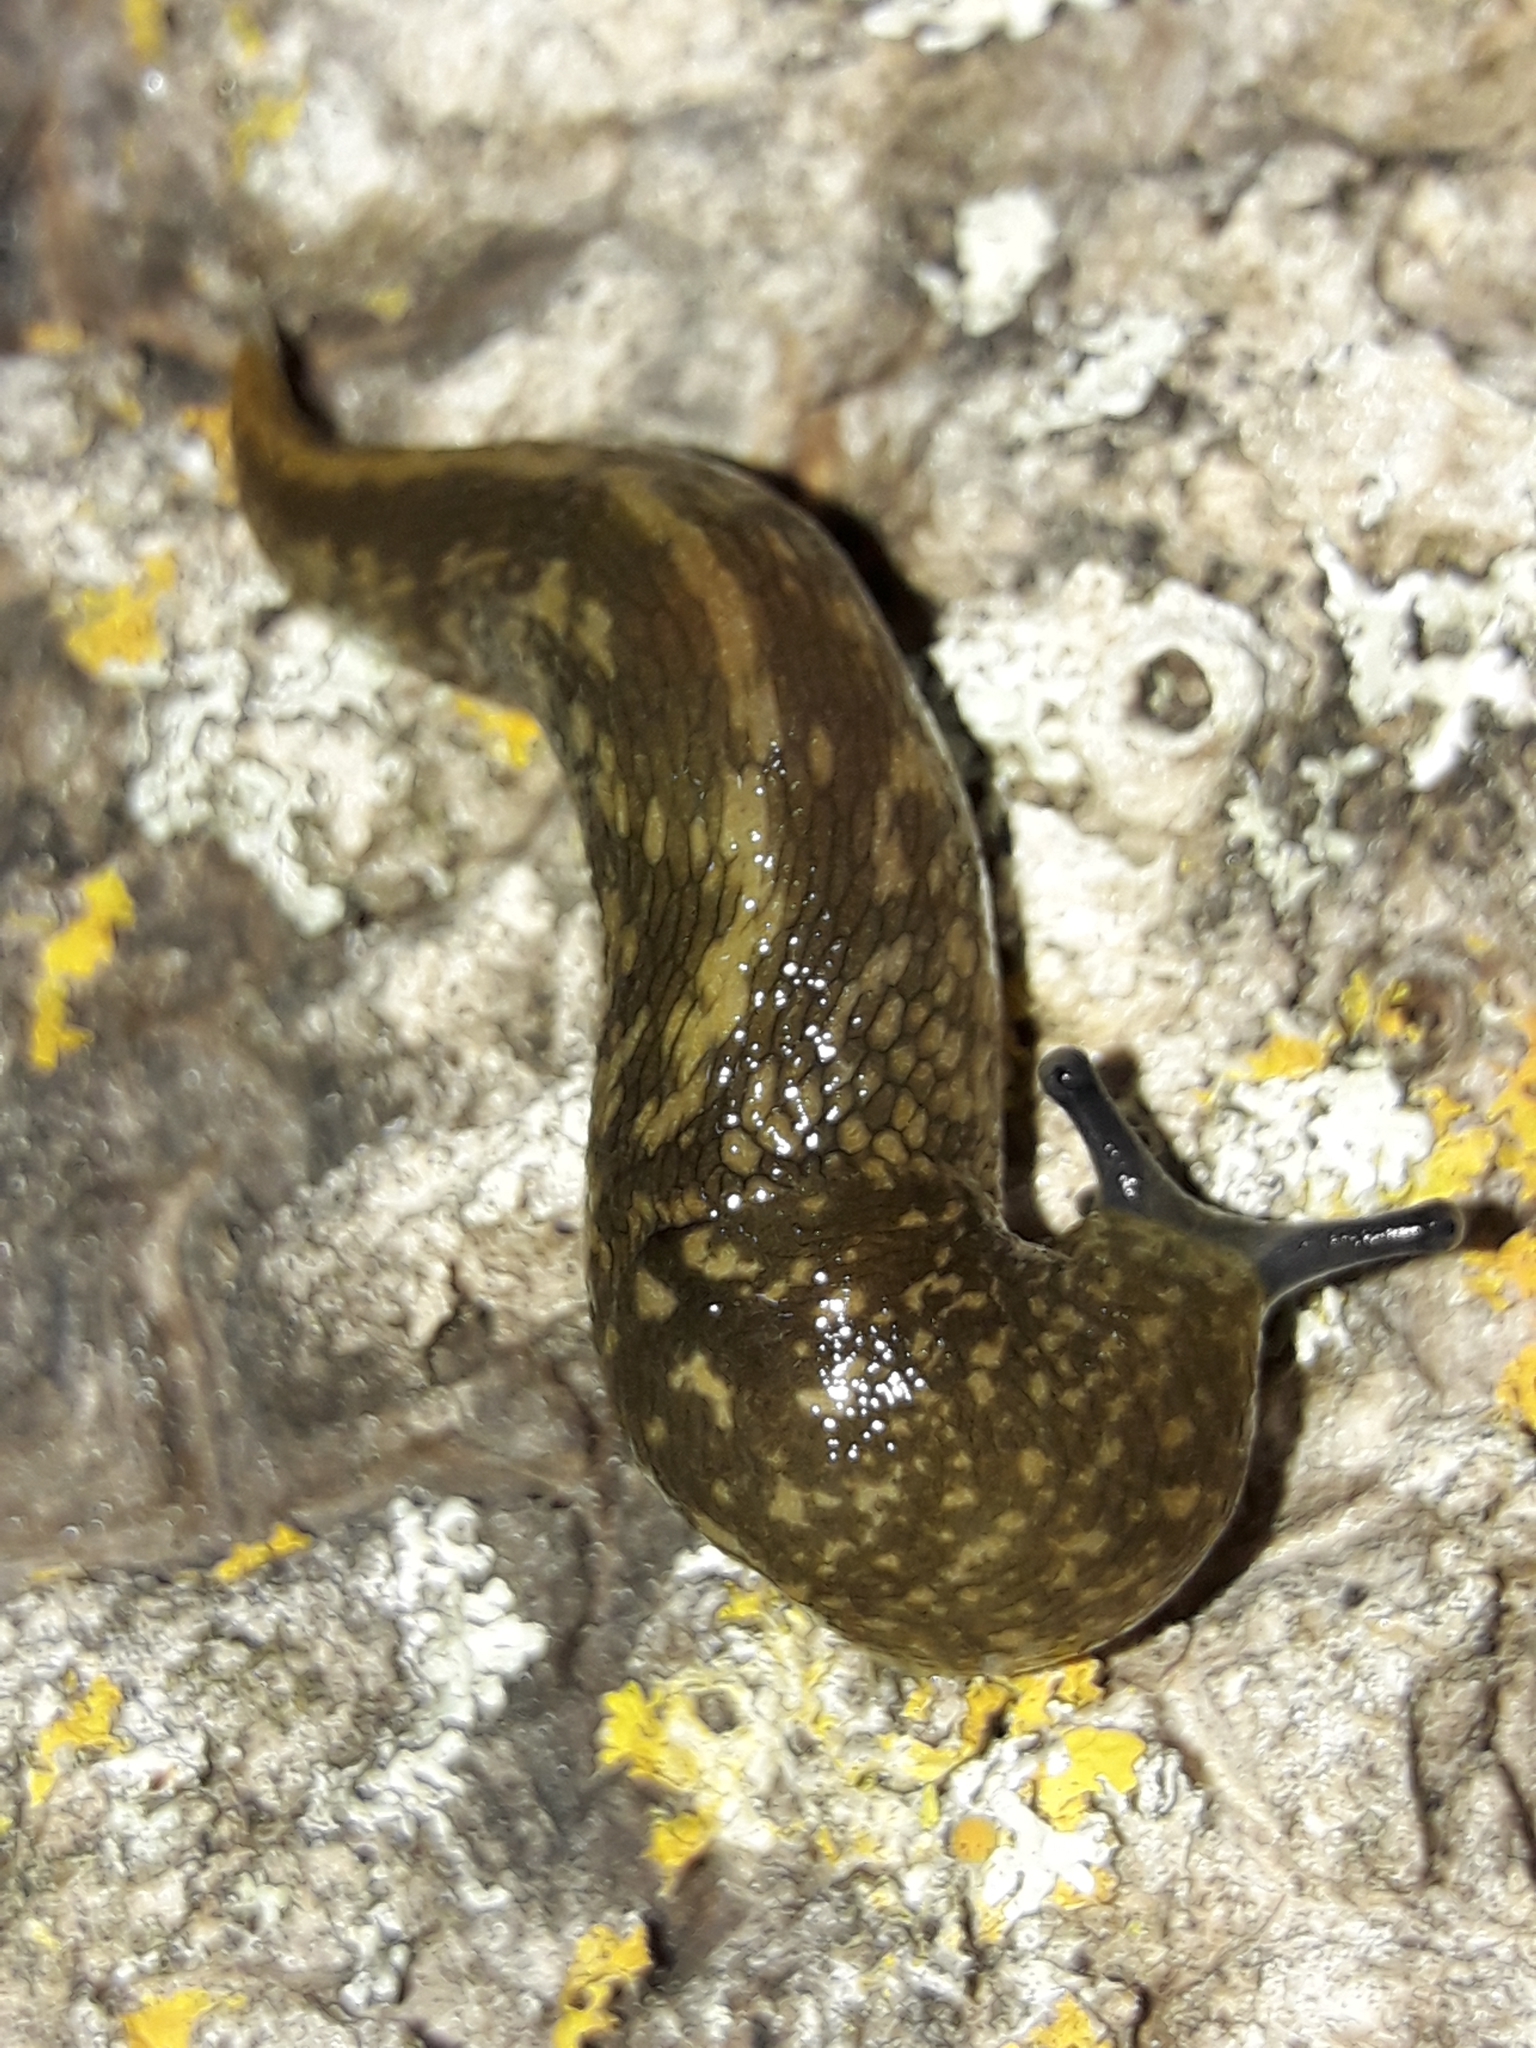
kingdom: Animalia
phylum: Mollusca
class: Gastropoda
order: Stylommatophora
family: Limacidae
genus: Limacus
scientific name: Limacus flavus
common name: Yellow gardenslug
